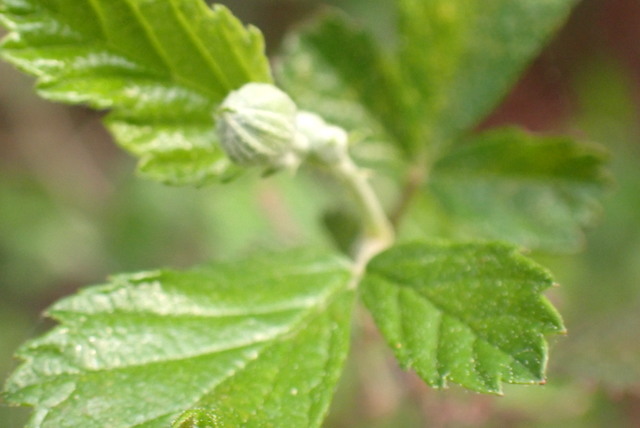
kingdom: Plantae
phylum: Tracheophyta
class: Magnoliopsida
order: Rosales
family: Rosaceae
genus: Rubus
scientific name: Rubus trivialis
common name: Southern dewberry
